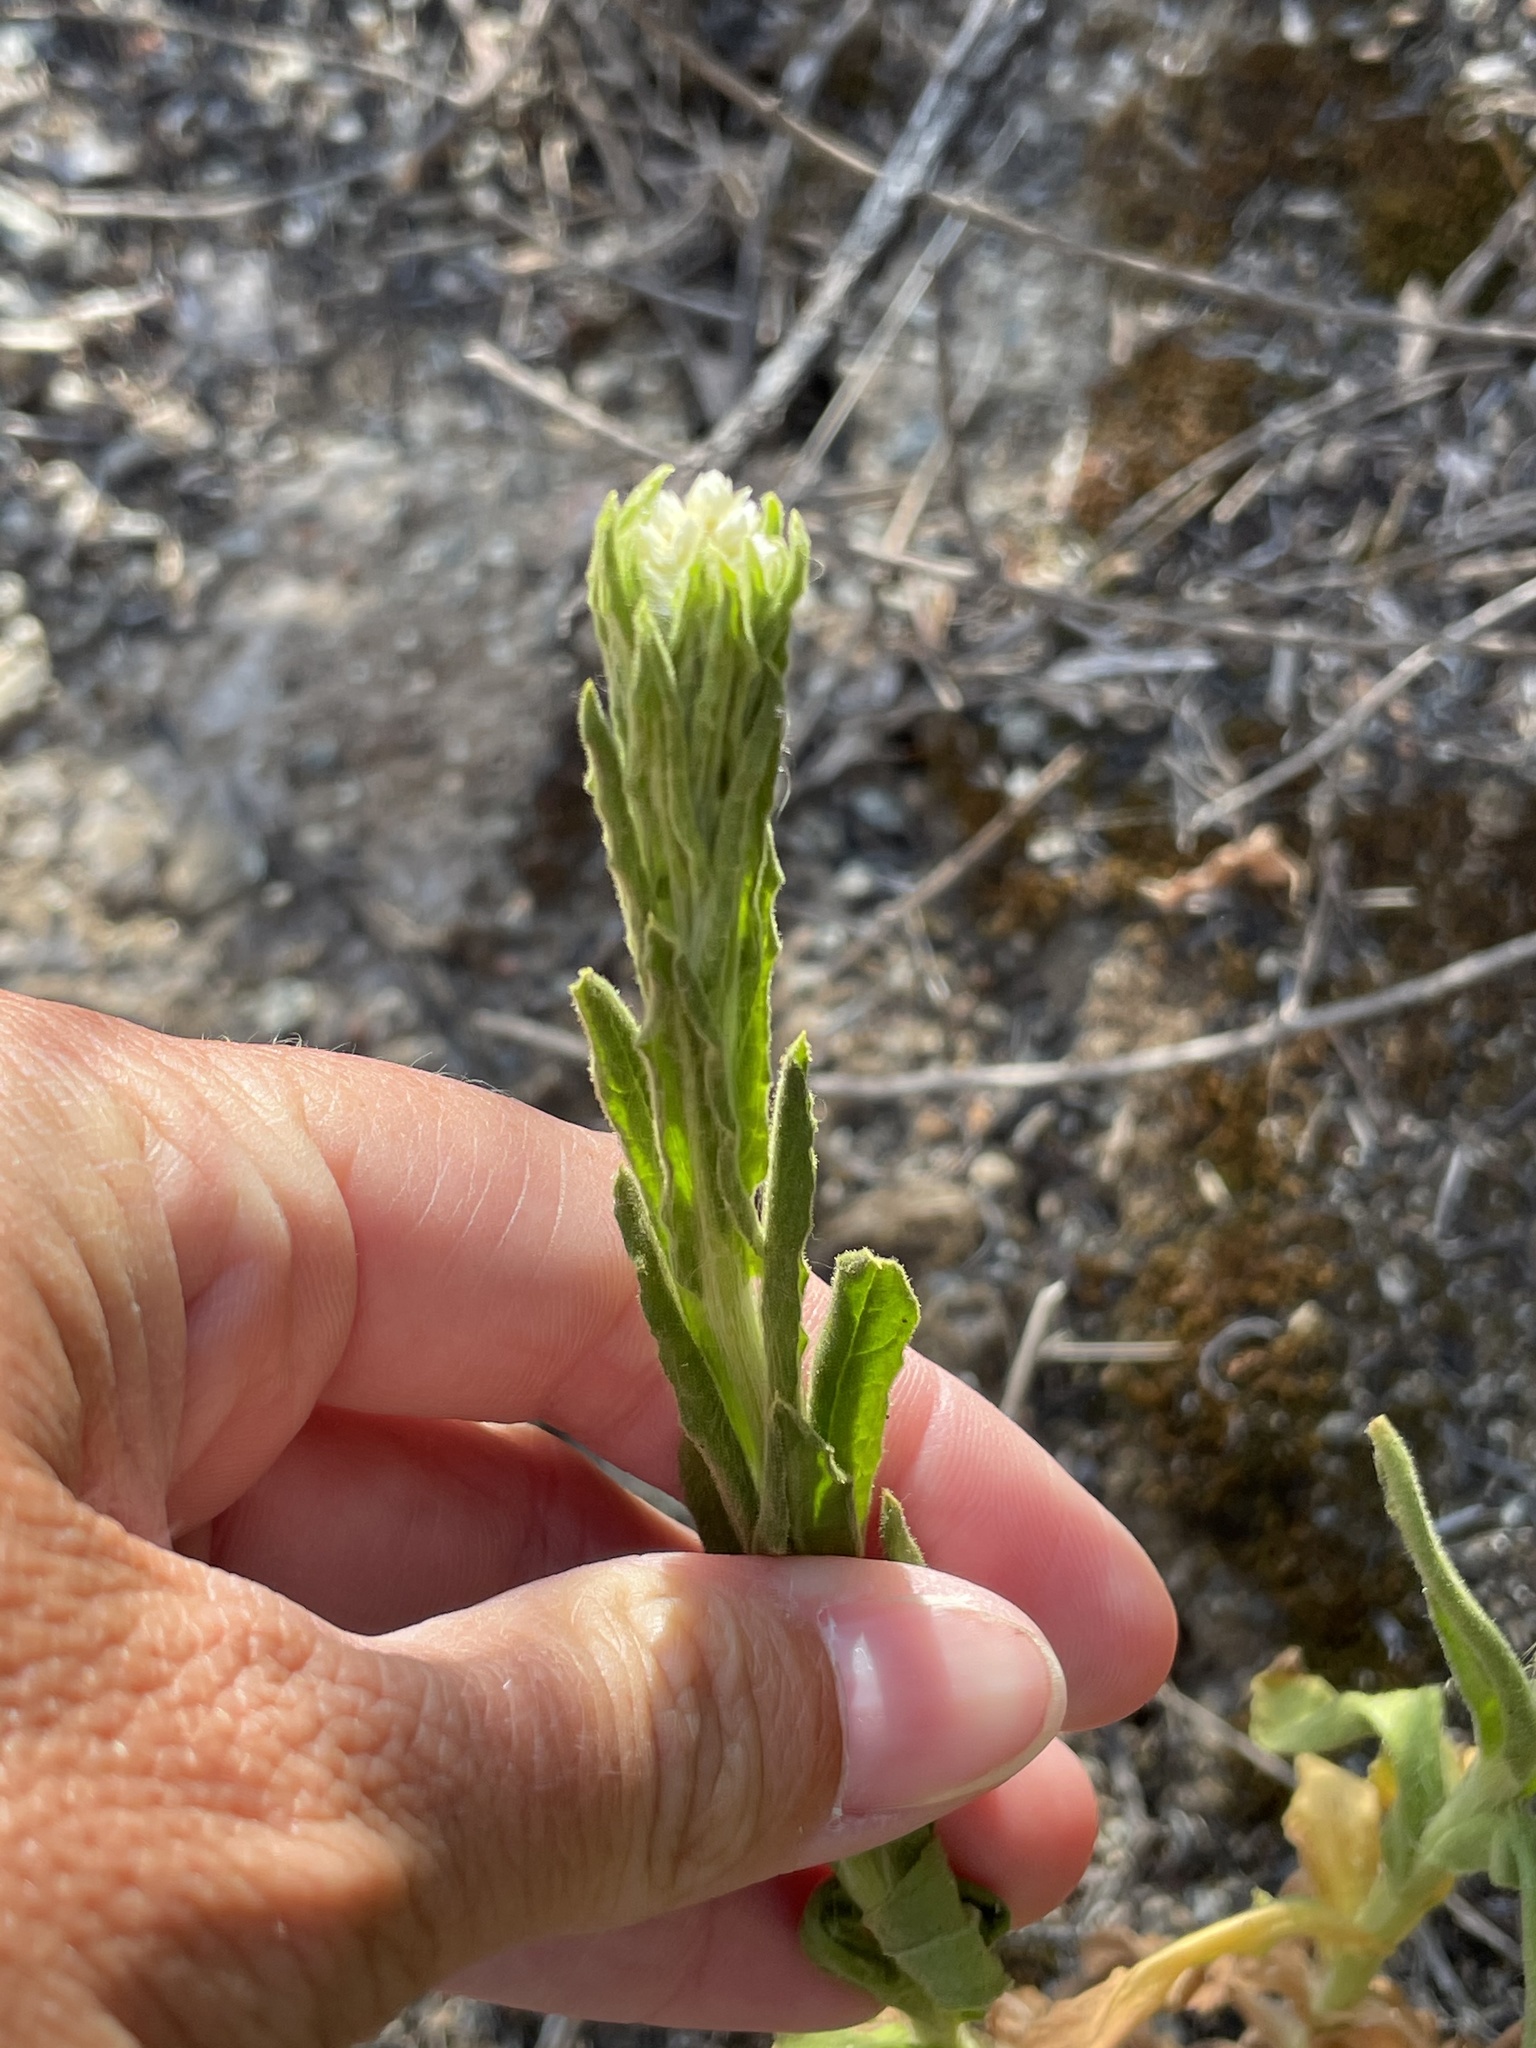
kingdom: Plantae
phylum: Tracheophyta
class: Magnoliopsida
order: Asterales
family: Asteraceae
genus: Pseudognaphalium
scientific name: Pseudognaphalium californicum
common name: California rabbit-tobacco
